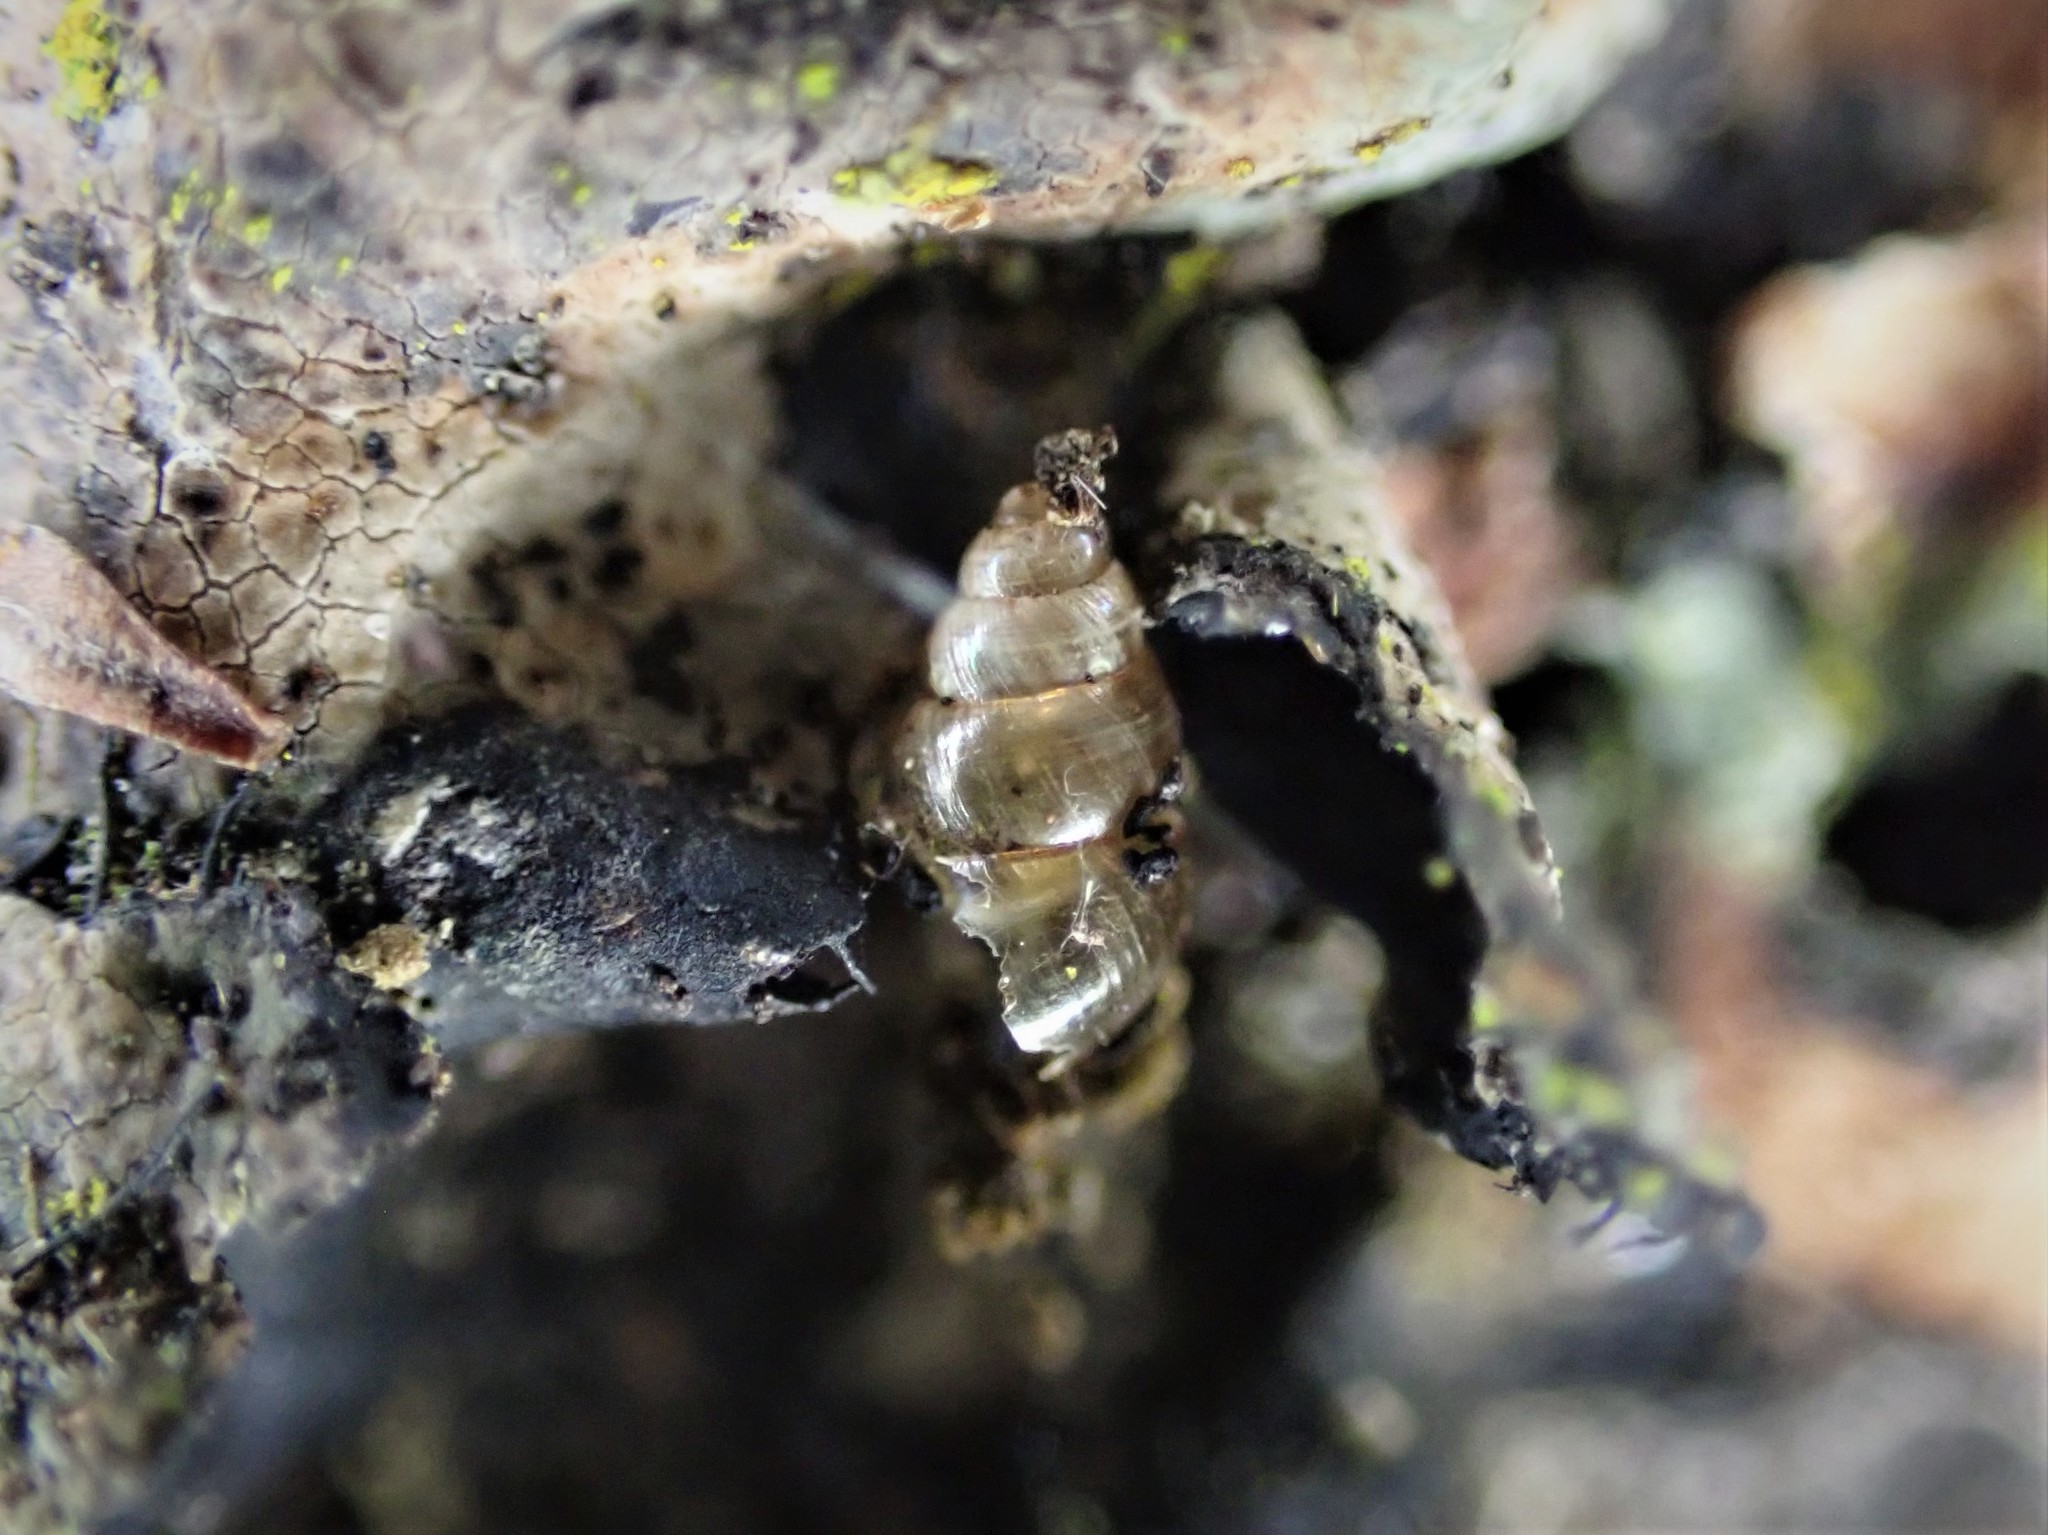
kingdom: Animalia
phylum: Mollusca
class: Gastropoda
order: Stylommatophora
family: Achatinellidae
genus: Tornatellinops
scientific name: Tornatellinops novoseelandicus
